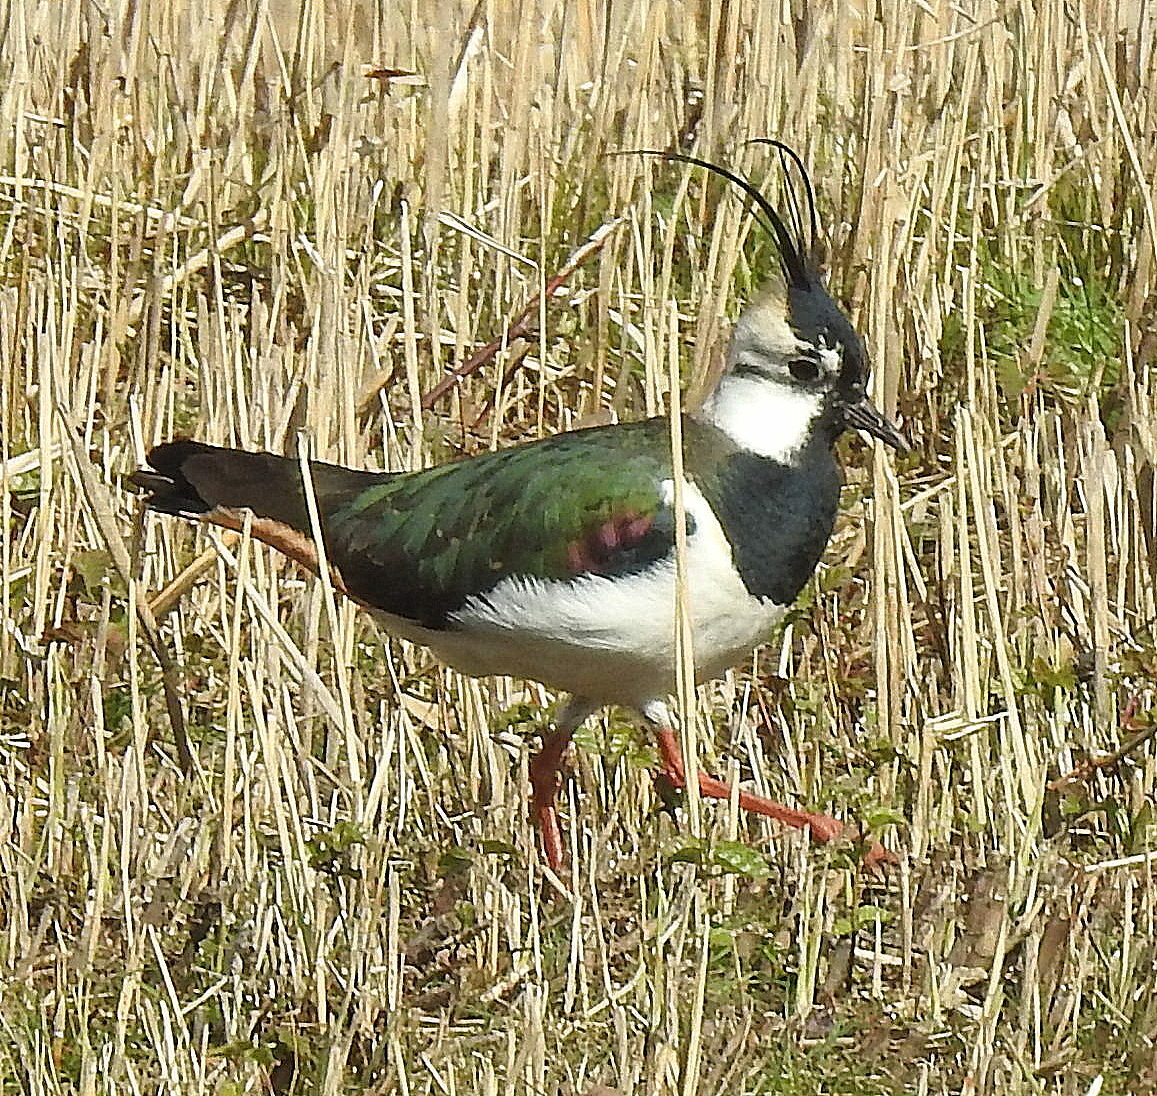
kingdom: Animalia
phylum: Chordata
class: Aves
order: Charadriiformes
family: Charadriidae
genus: Vanellus
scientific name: Vanellus vanellus
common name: Northern lapwing
